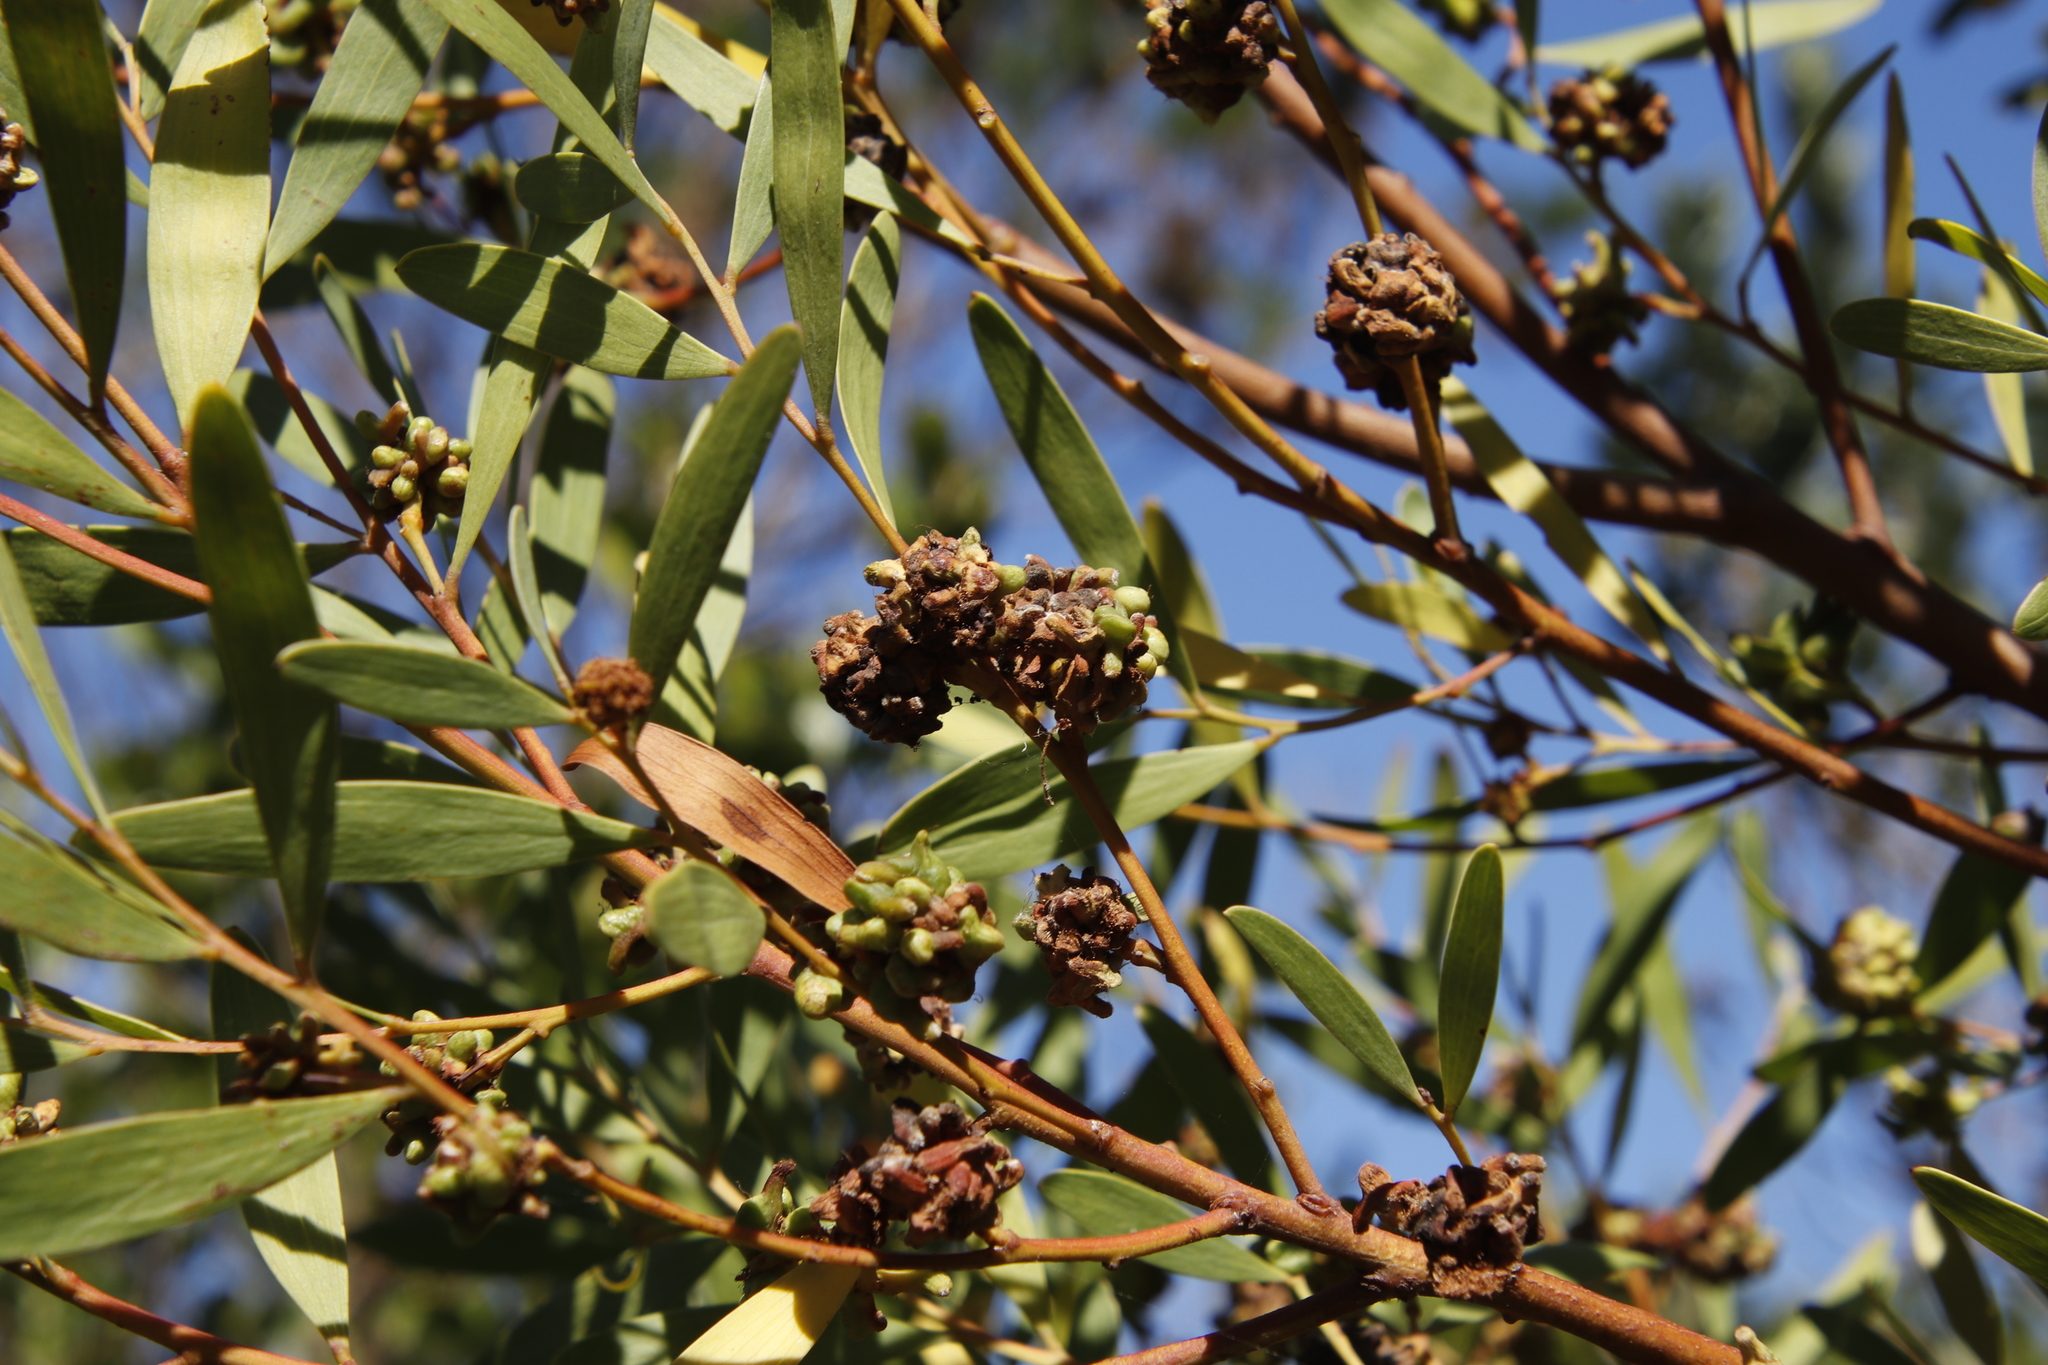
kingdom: Animalia
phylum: Arthropoda
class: Insecta
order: Diptera
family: Cecidomyiidae
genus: Dasineura
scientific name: Dasineura dielsi
